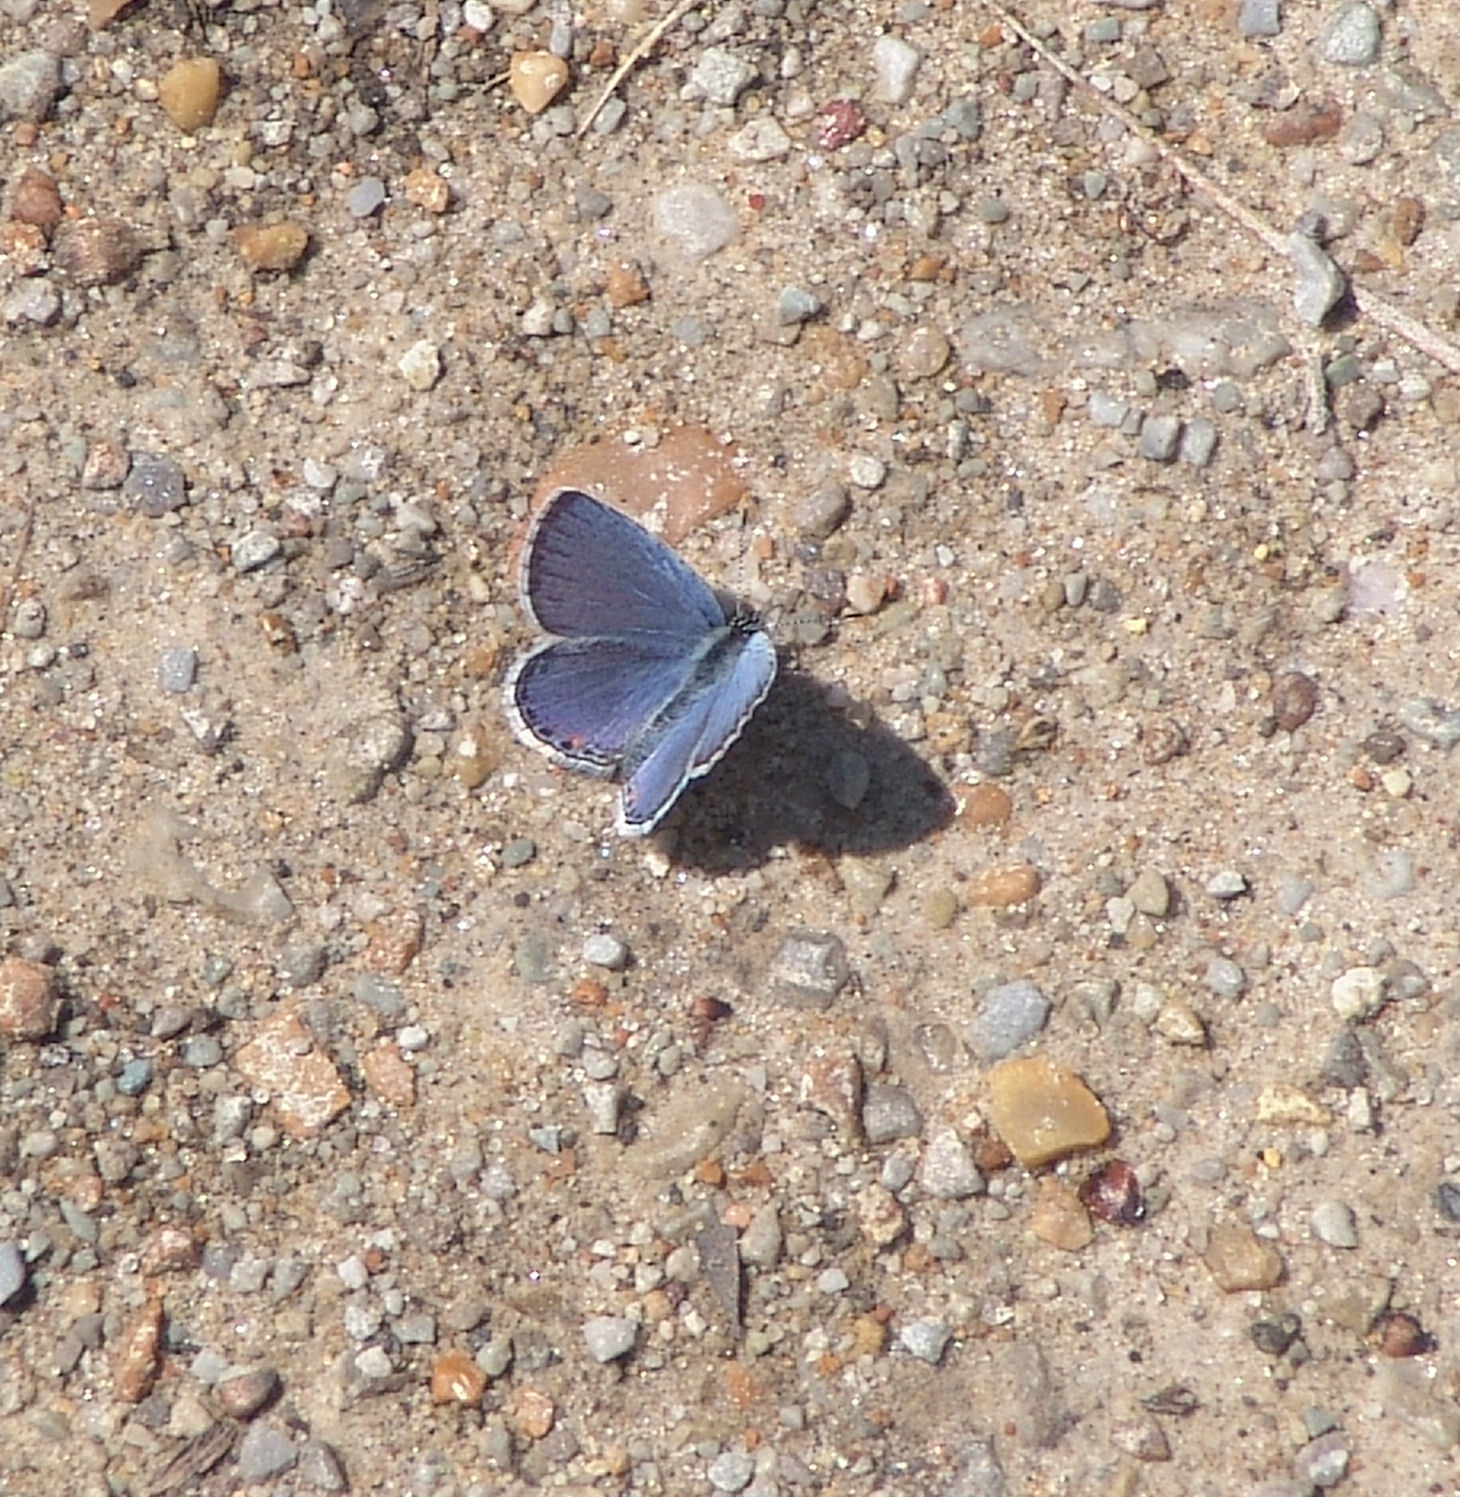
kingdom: Animalia
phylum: Arthropoda
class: Insecta
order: Lepidoptera
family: Lycaenidae
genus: Elkalyce
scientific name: Elkalyce comyntas
